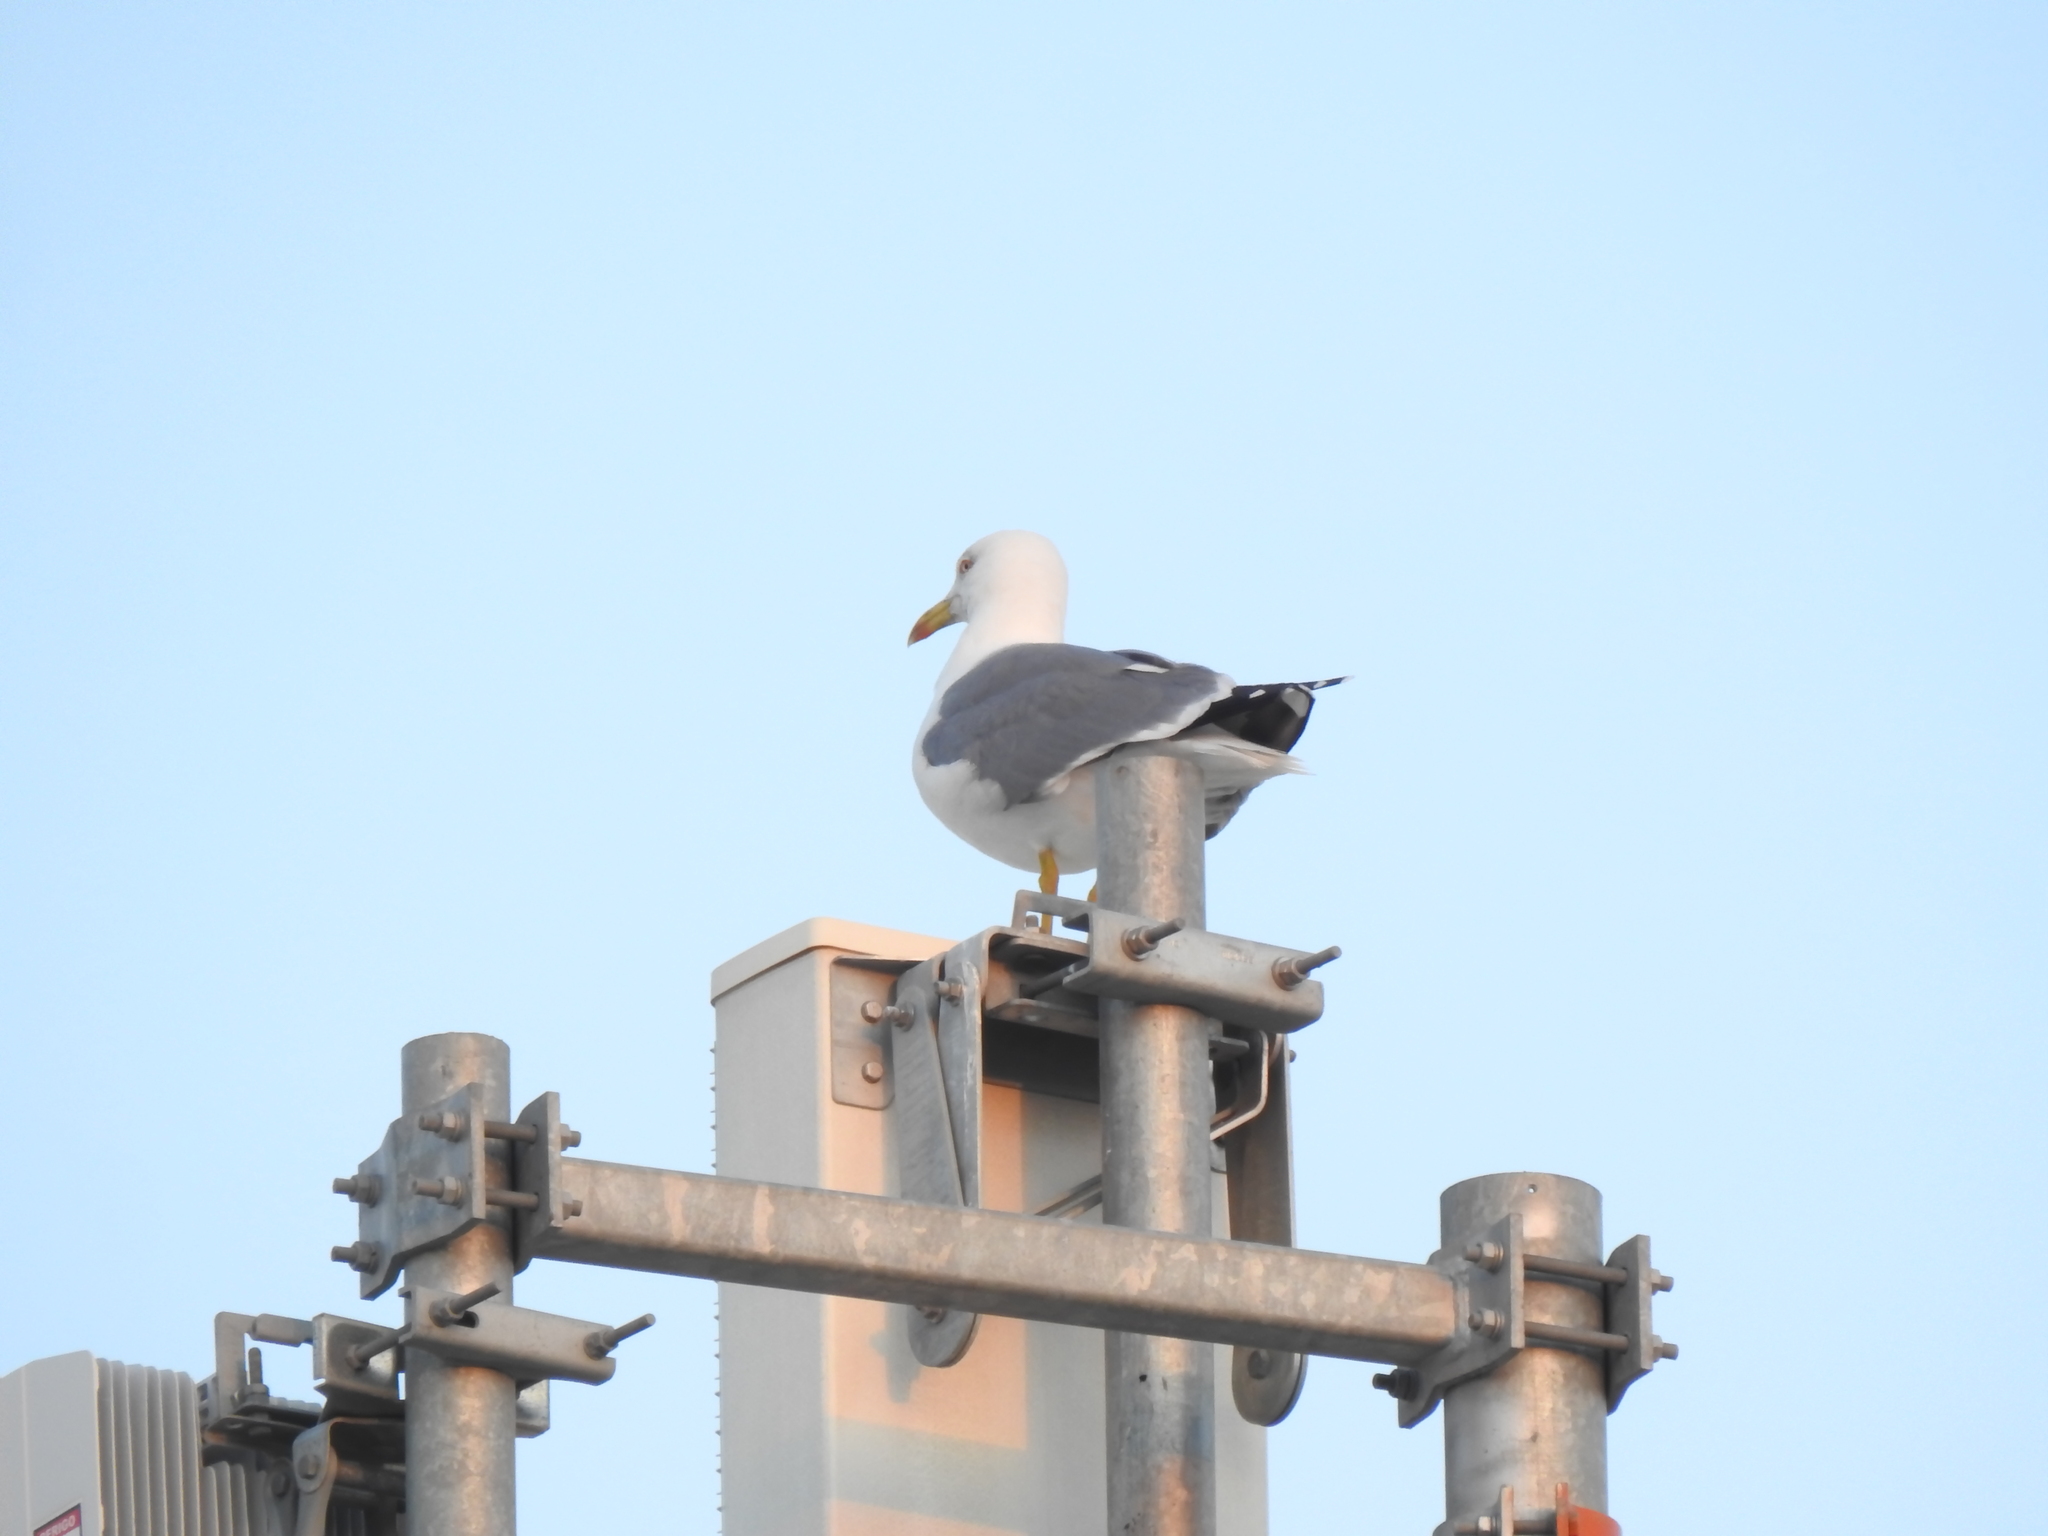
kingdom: Animalia
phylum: Chordata
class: Aves
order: Charadriiformes
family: Laridae
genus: Larus
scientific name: Larus michahellis
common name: Yellow-legged gull
